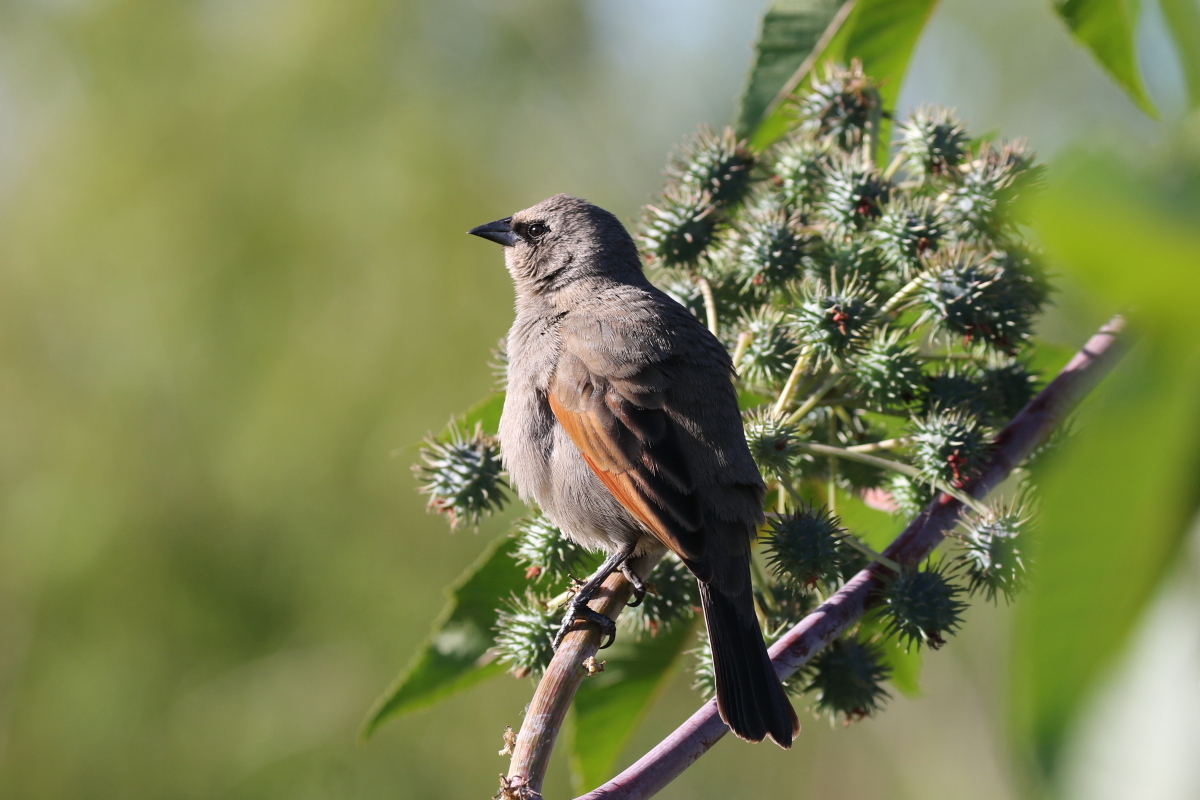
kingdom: Animalia
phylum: Chordata
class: Aves
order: Passeriformes
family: Icteridae
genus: Agelaioides
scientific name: Agelaioides badius
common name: Baywing
